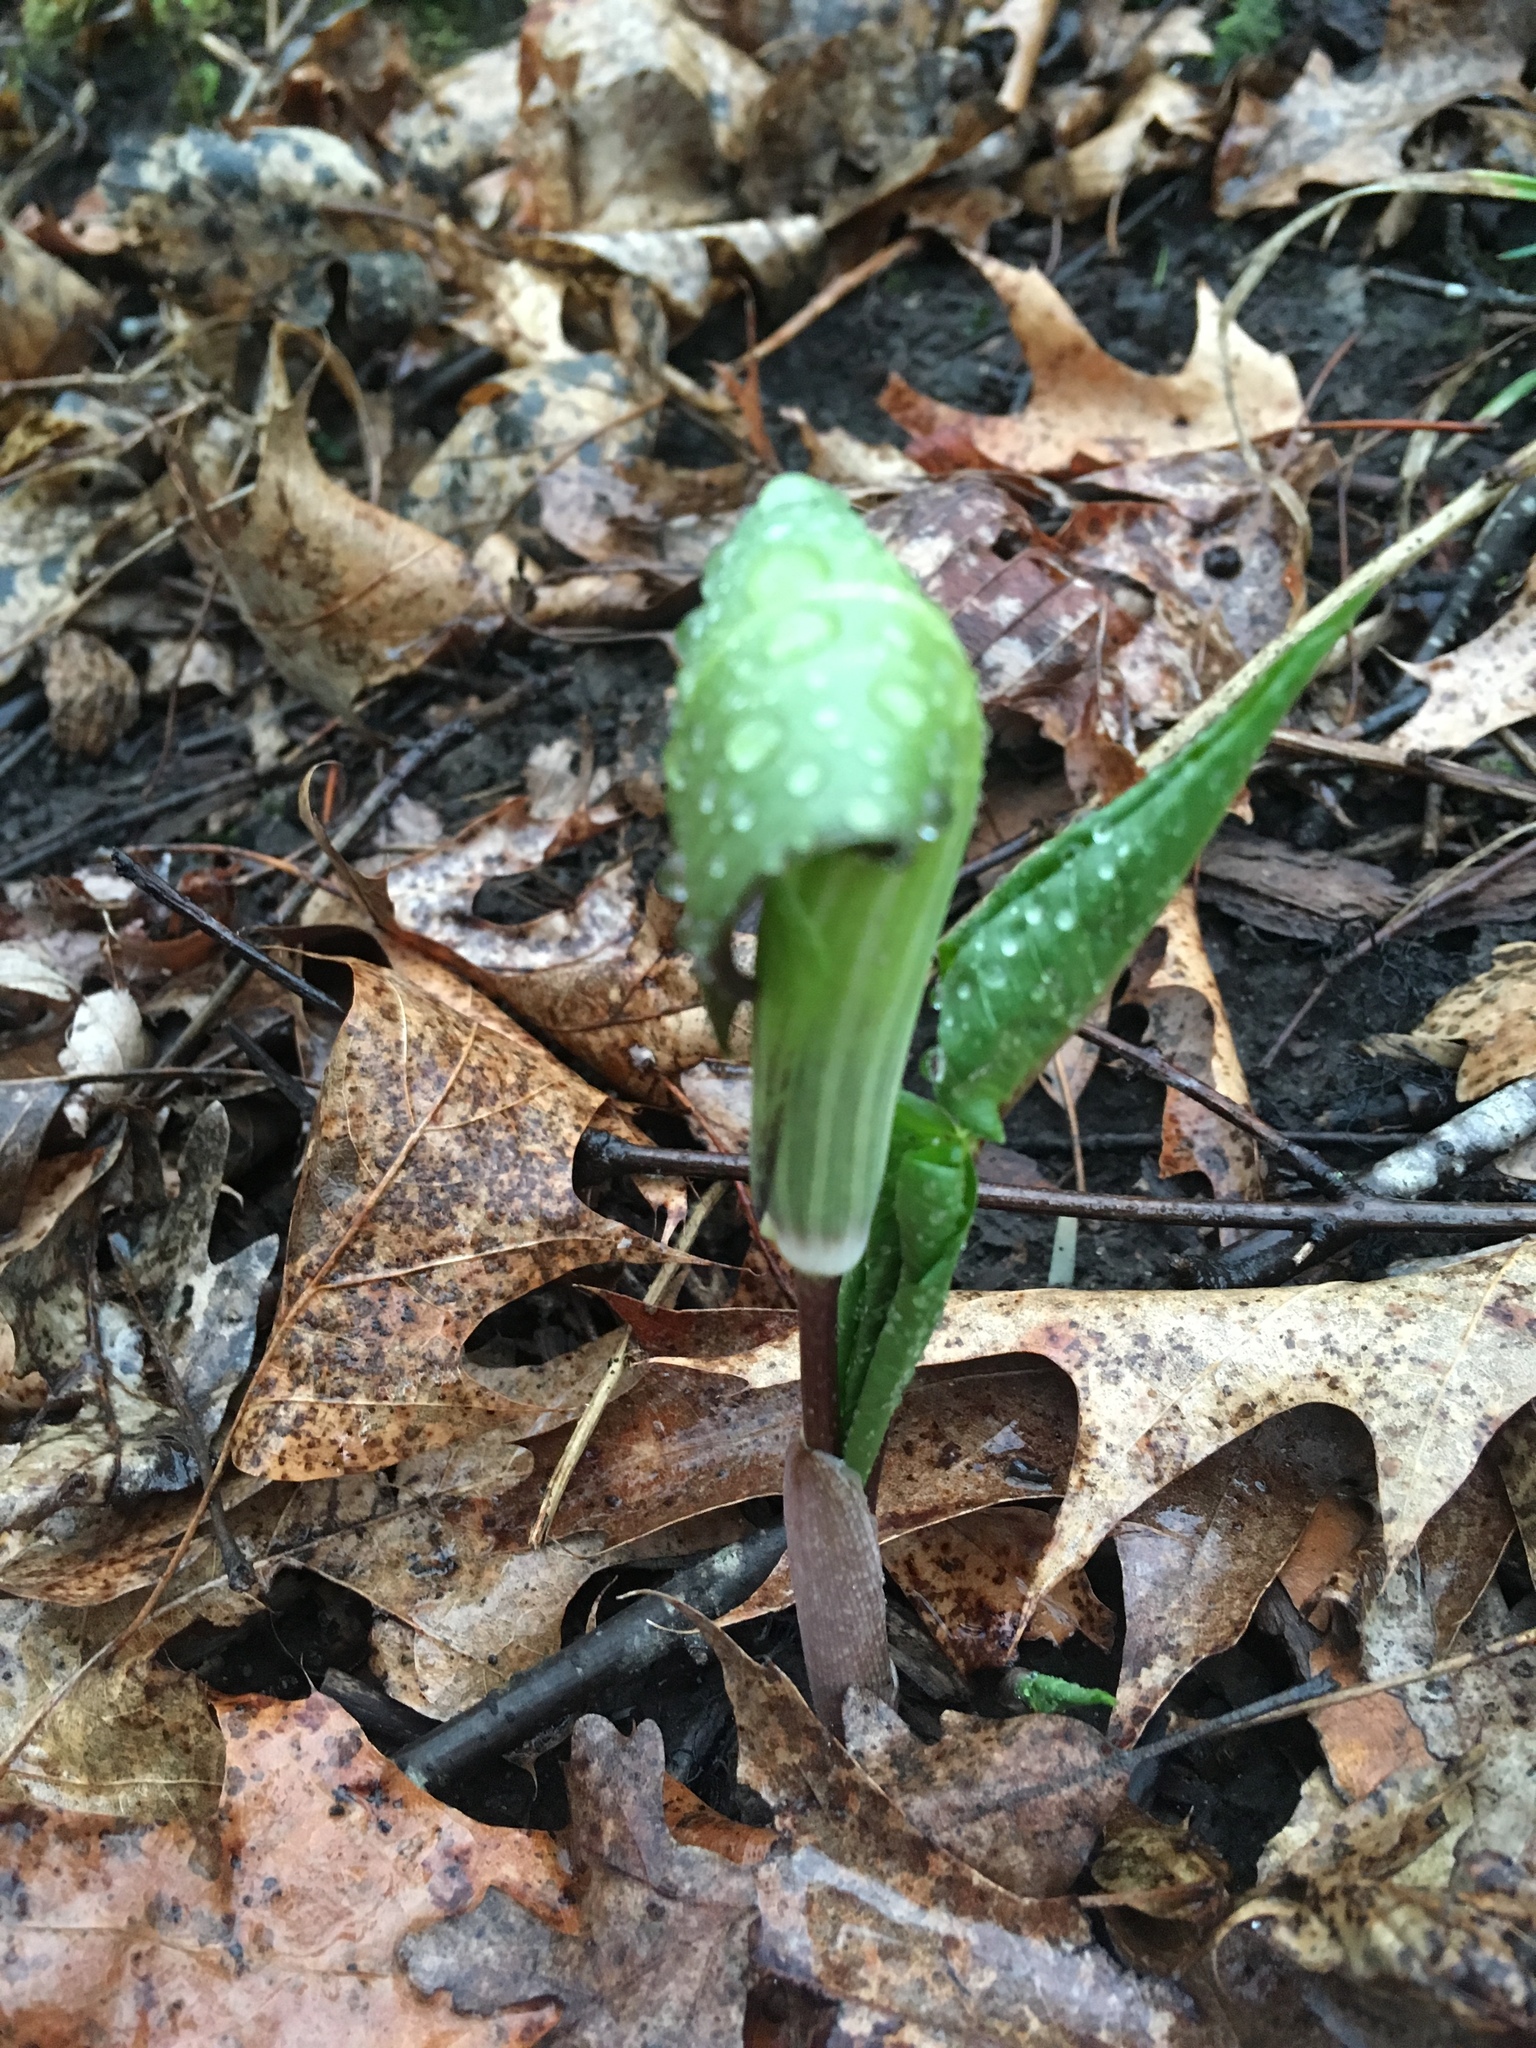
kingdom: Plantae
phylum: Tracheophyta
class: Liliopsida
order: Alismatales
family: Araceae
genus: Arisaema
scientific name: Arisaema triphyllum
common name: Jack-in-the-pulpit
